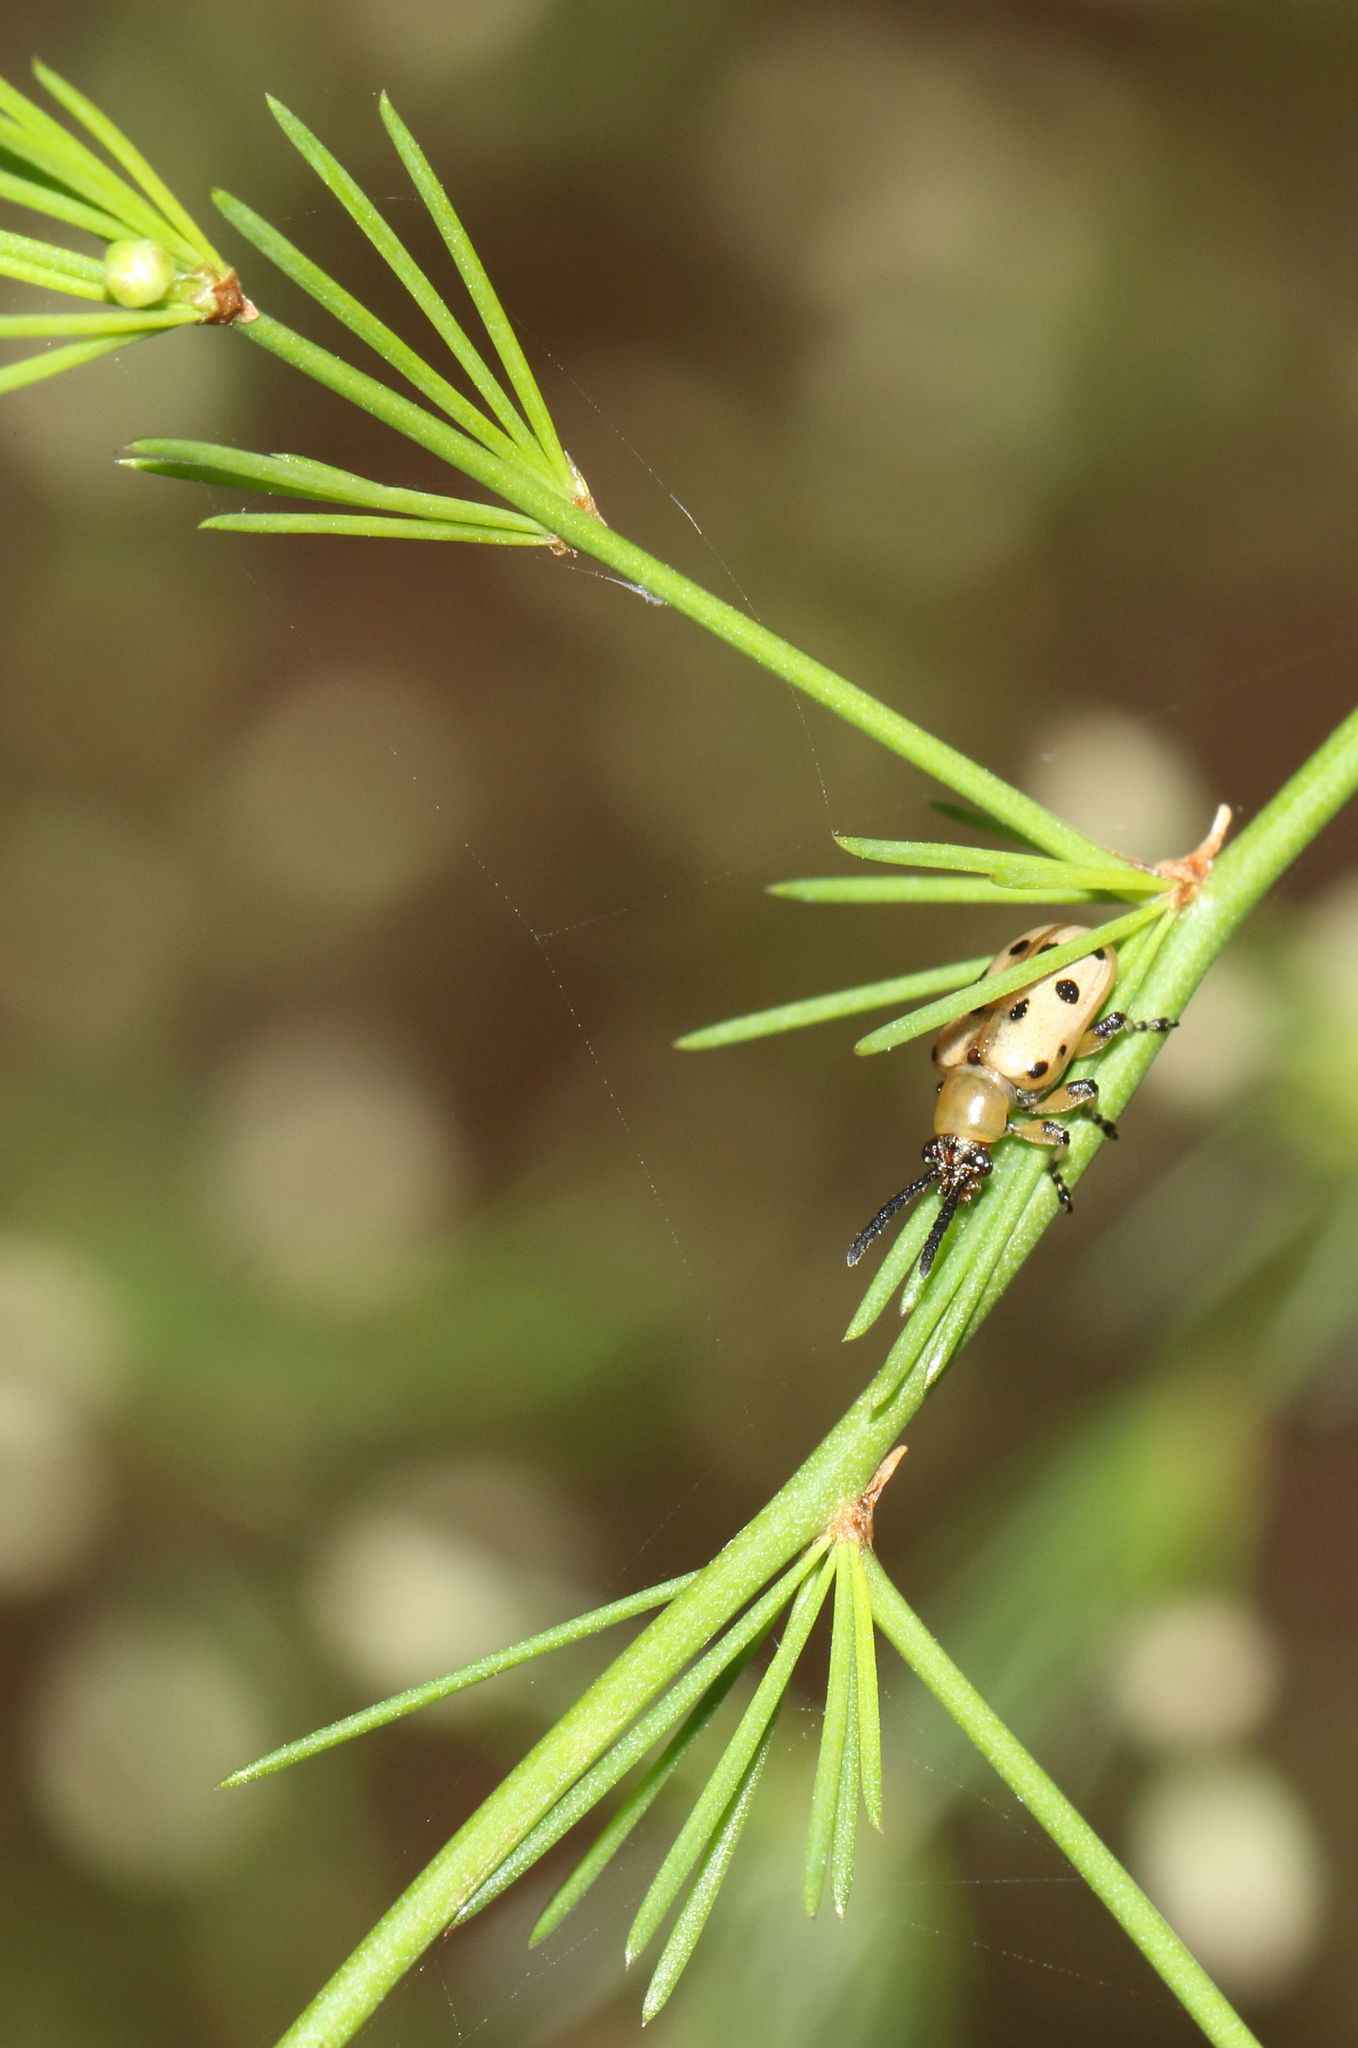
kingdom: Animalia
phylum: Arthropoda
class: Insecta
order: Coleoptera
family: Chrysomelidae
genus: Crioceris
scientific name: Crioceris
